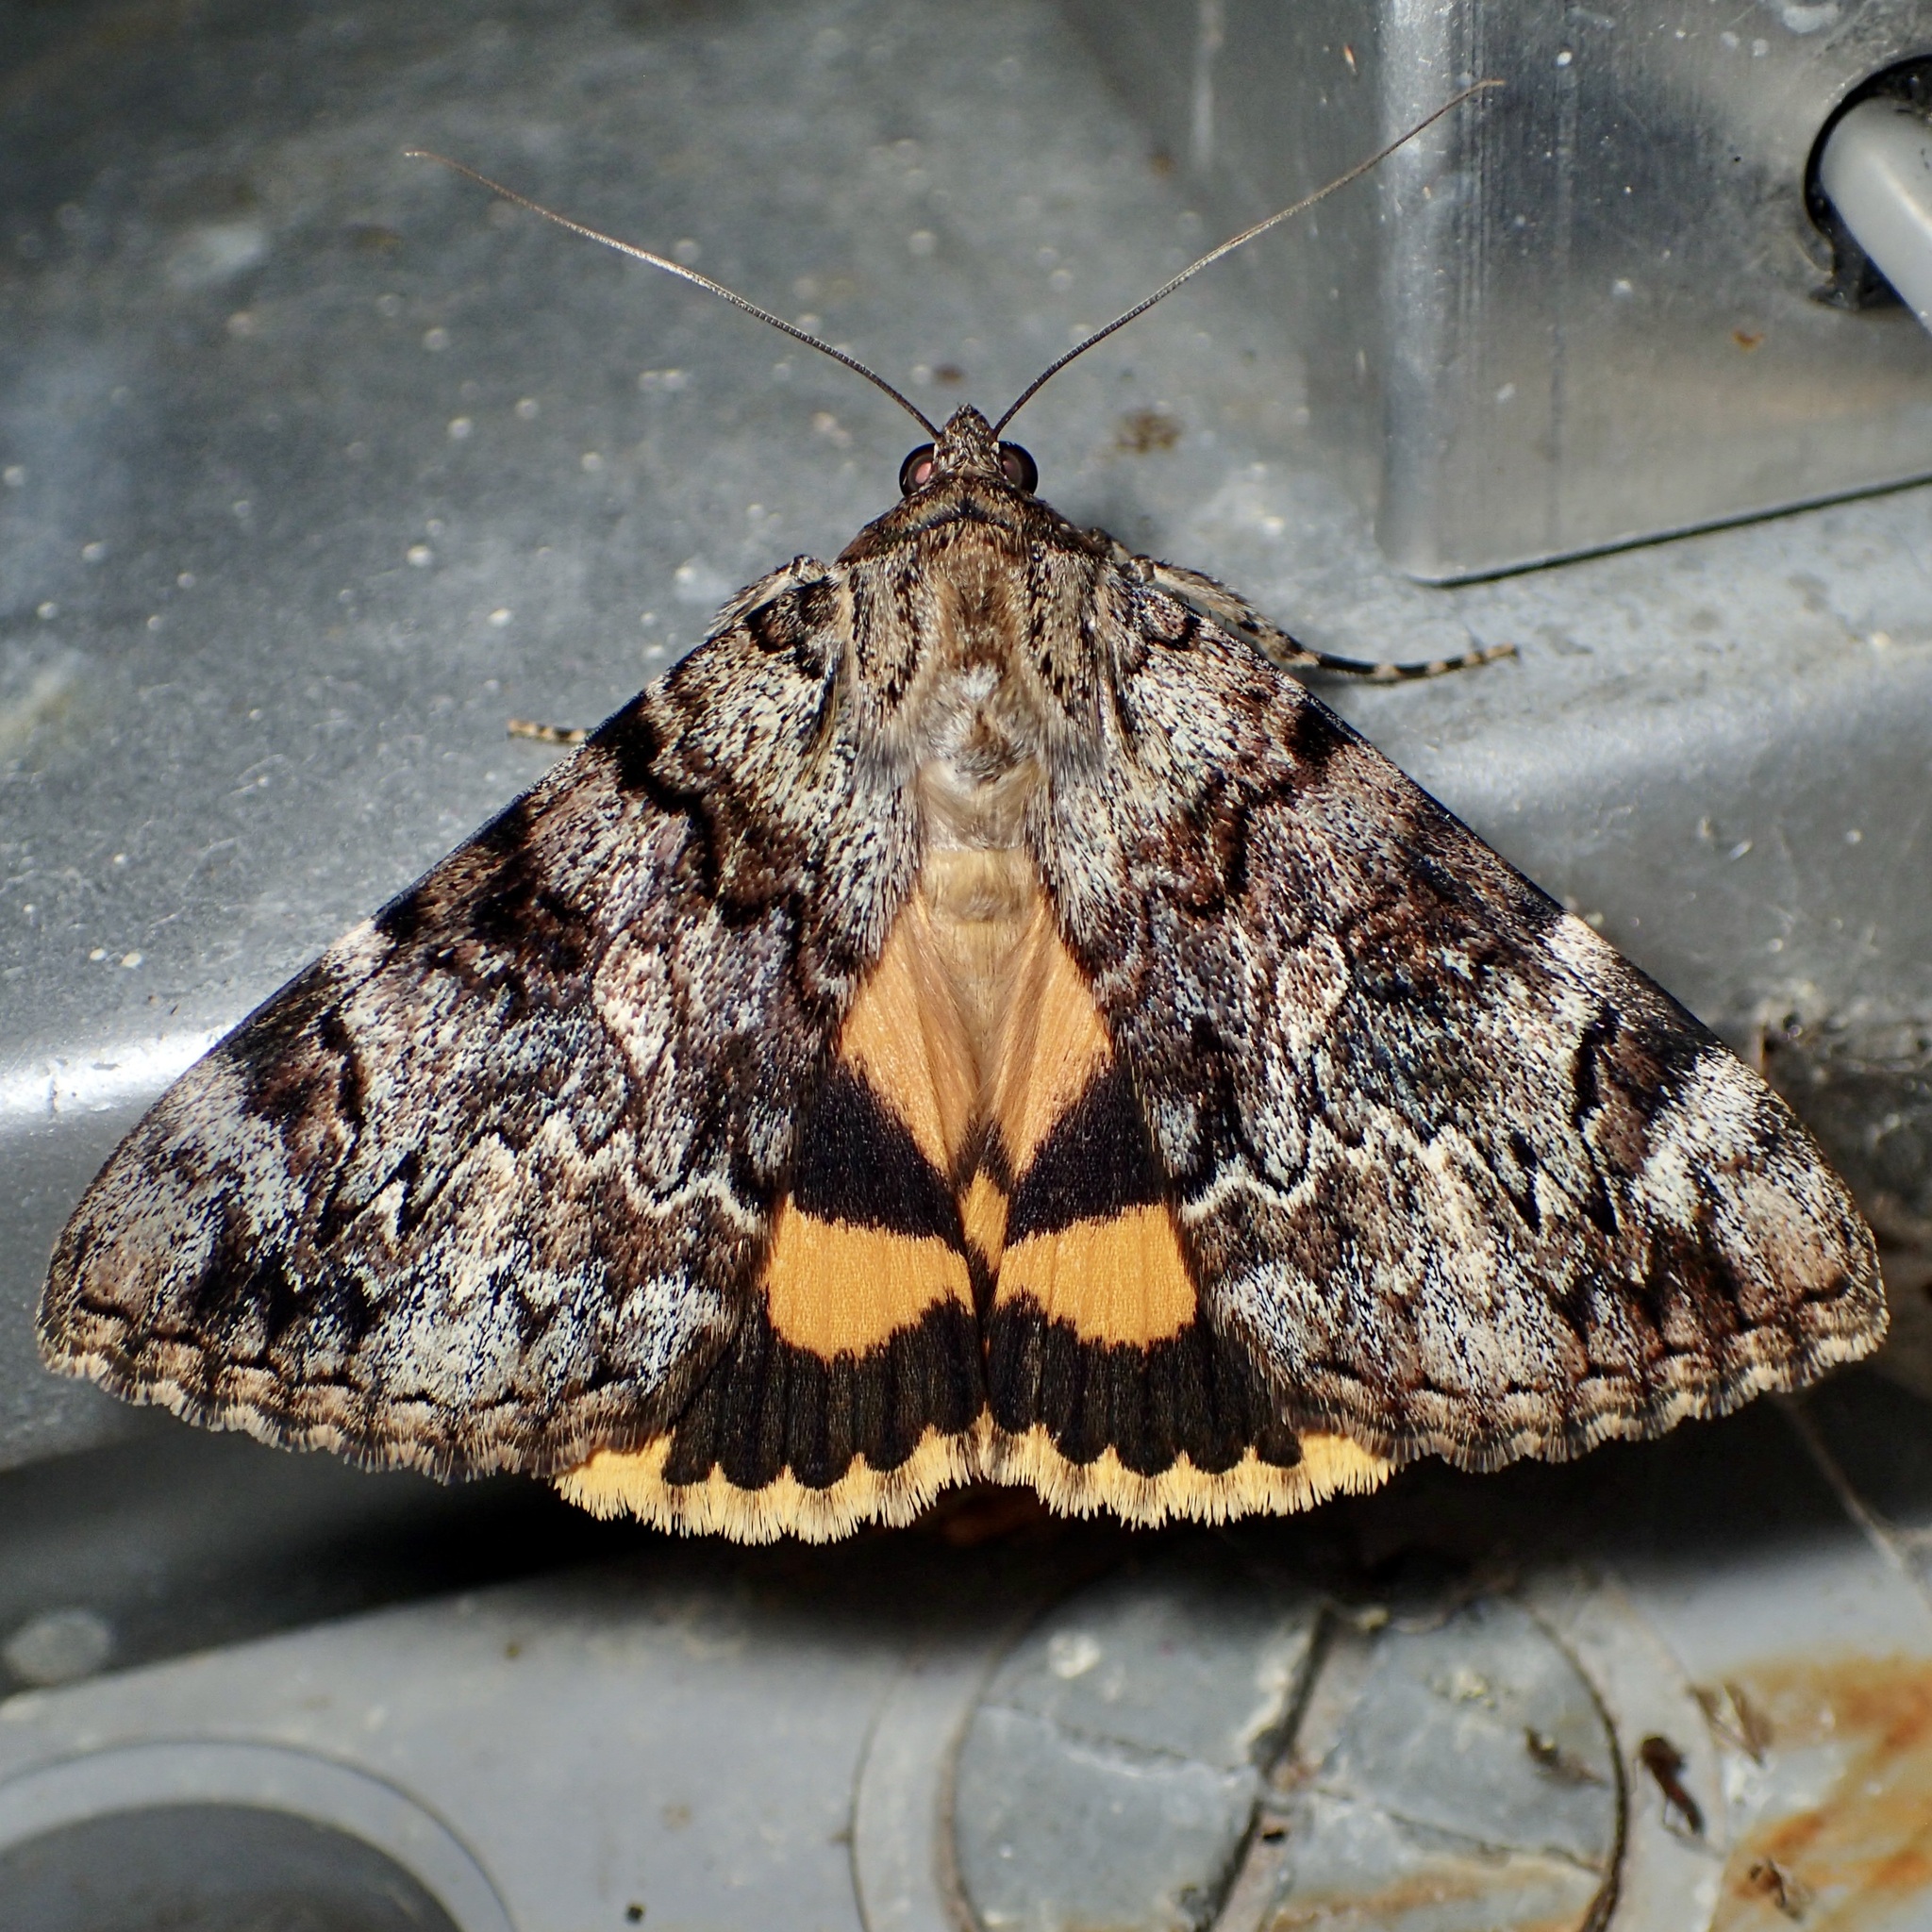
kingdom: Animalia
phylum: Arthropoda
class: Insecta
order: Lepidoptera
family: Erebidae
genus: Catocala
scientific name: Catocala desdemona
